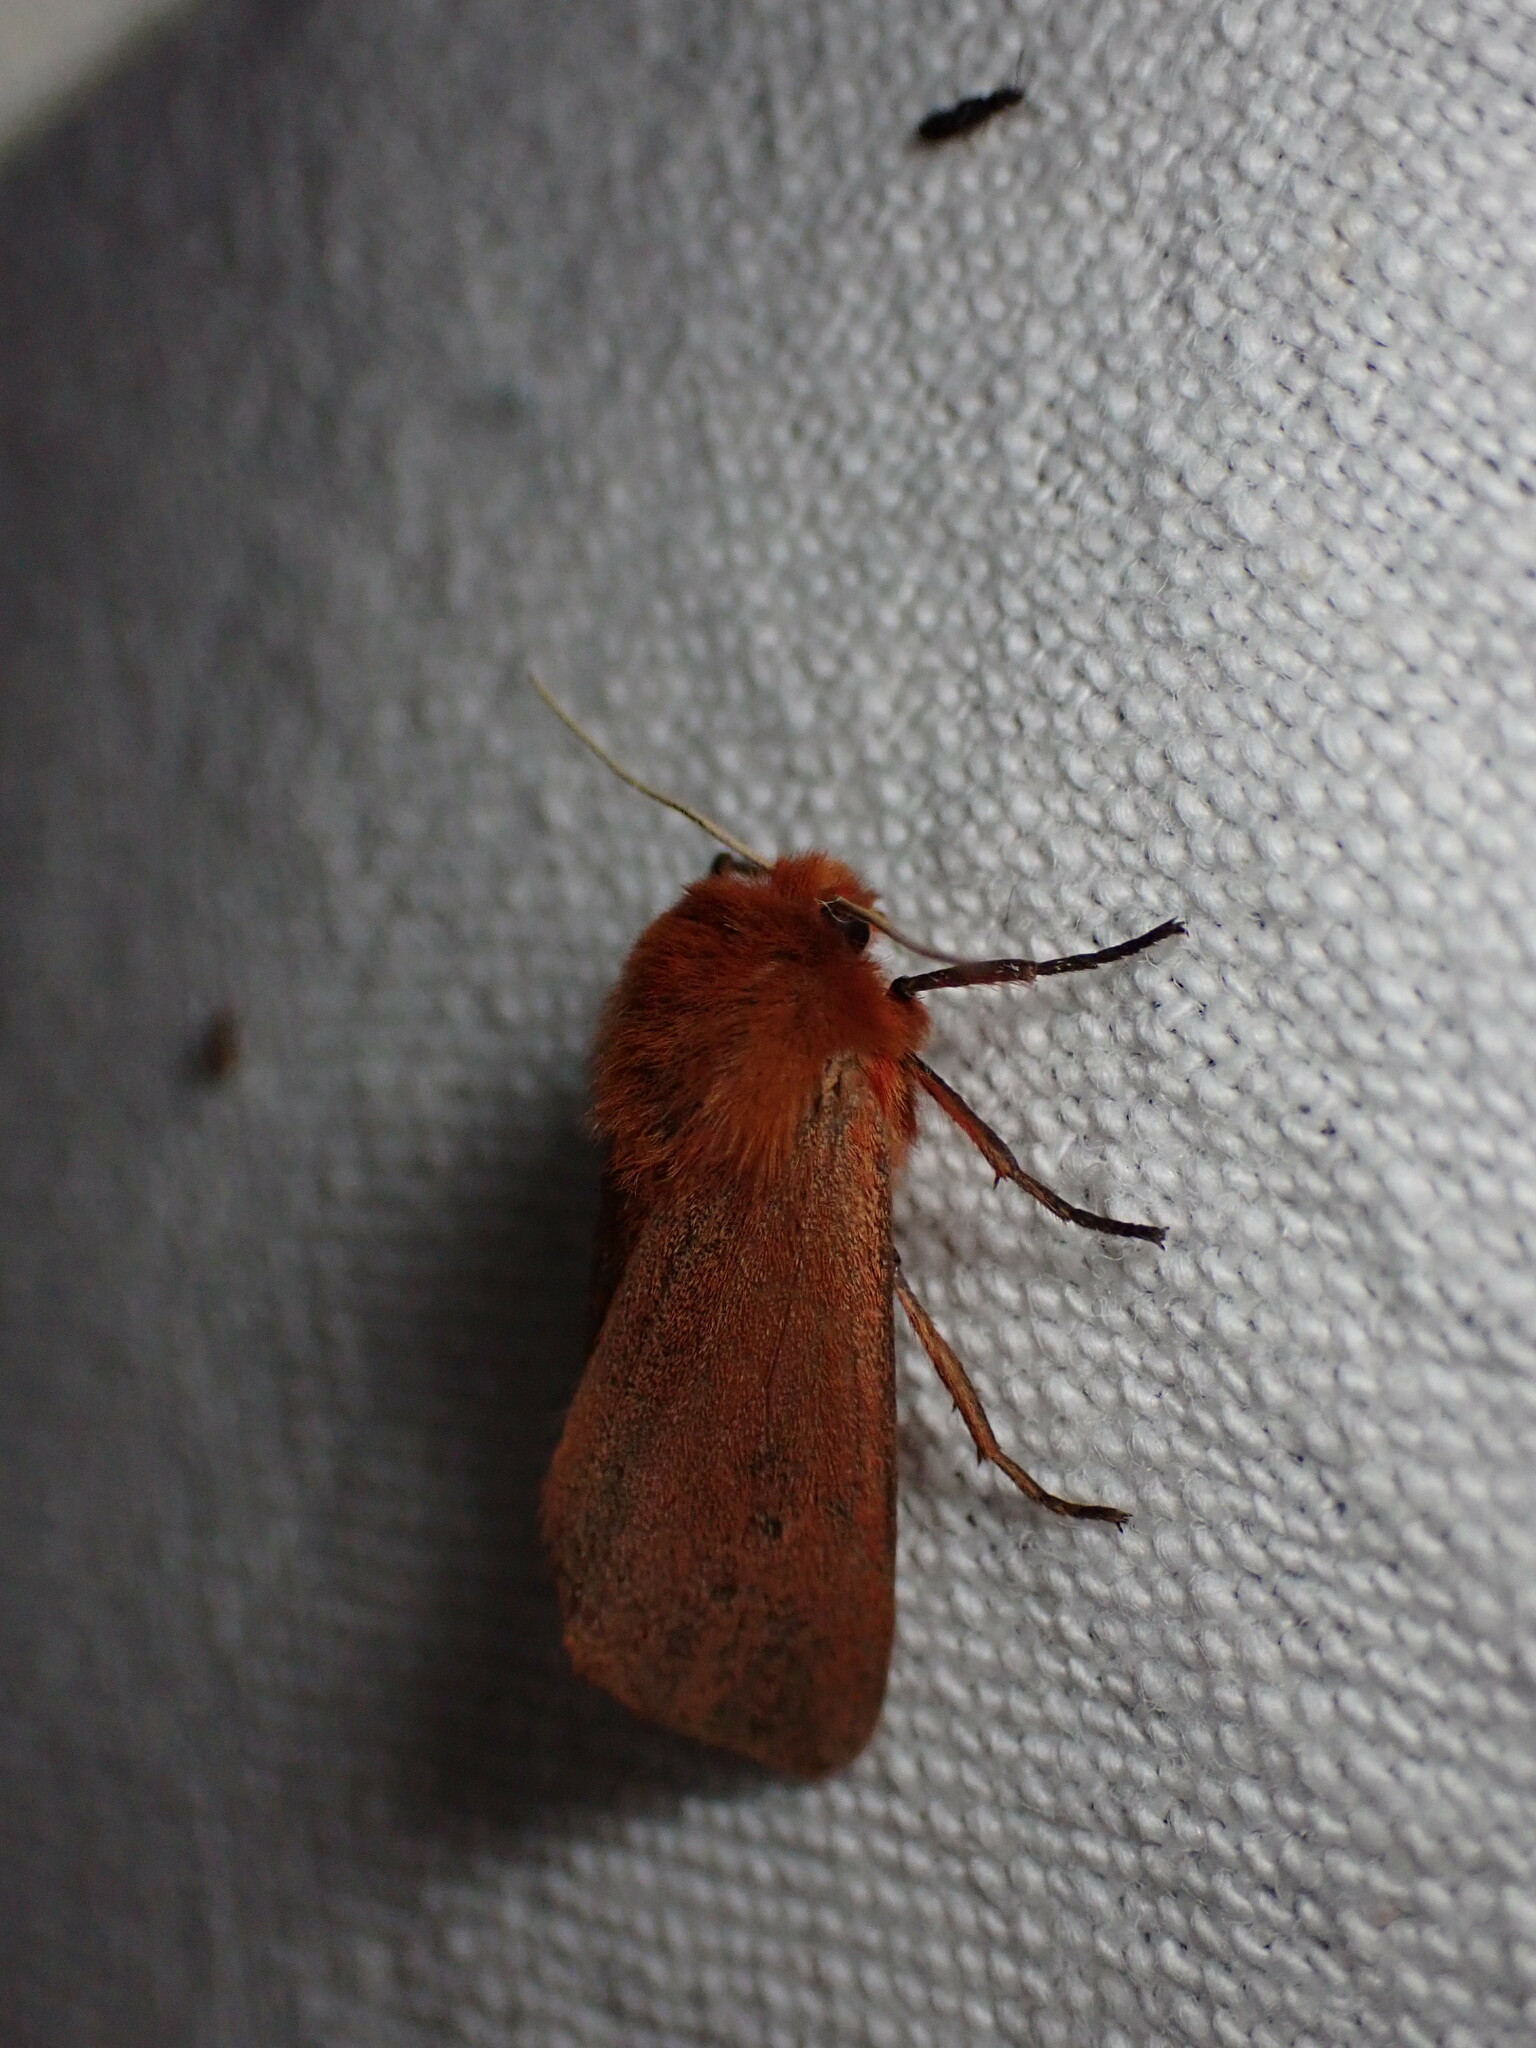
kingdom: Animalia
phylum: Arthropoda
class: Insecta
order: Lepidoptera
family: Erebidae
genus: Phragmatobia
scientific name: Phragmatobia fuliginosa
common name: Ruby tiger
